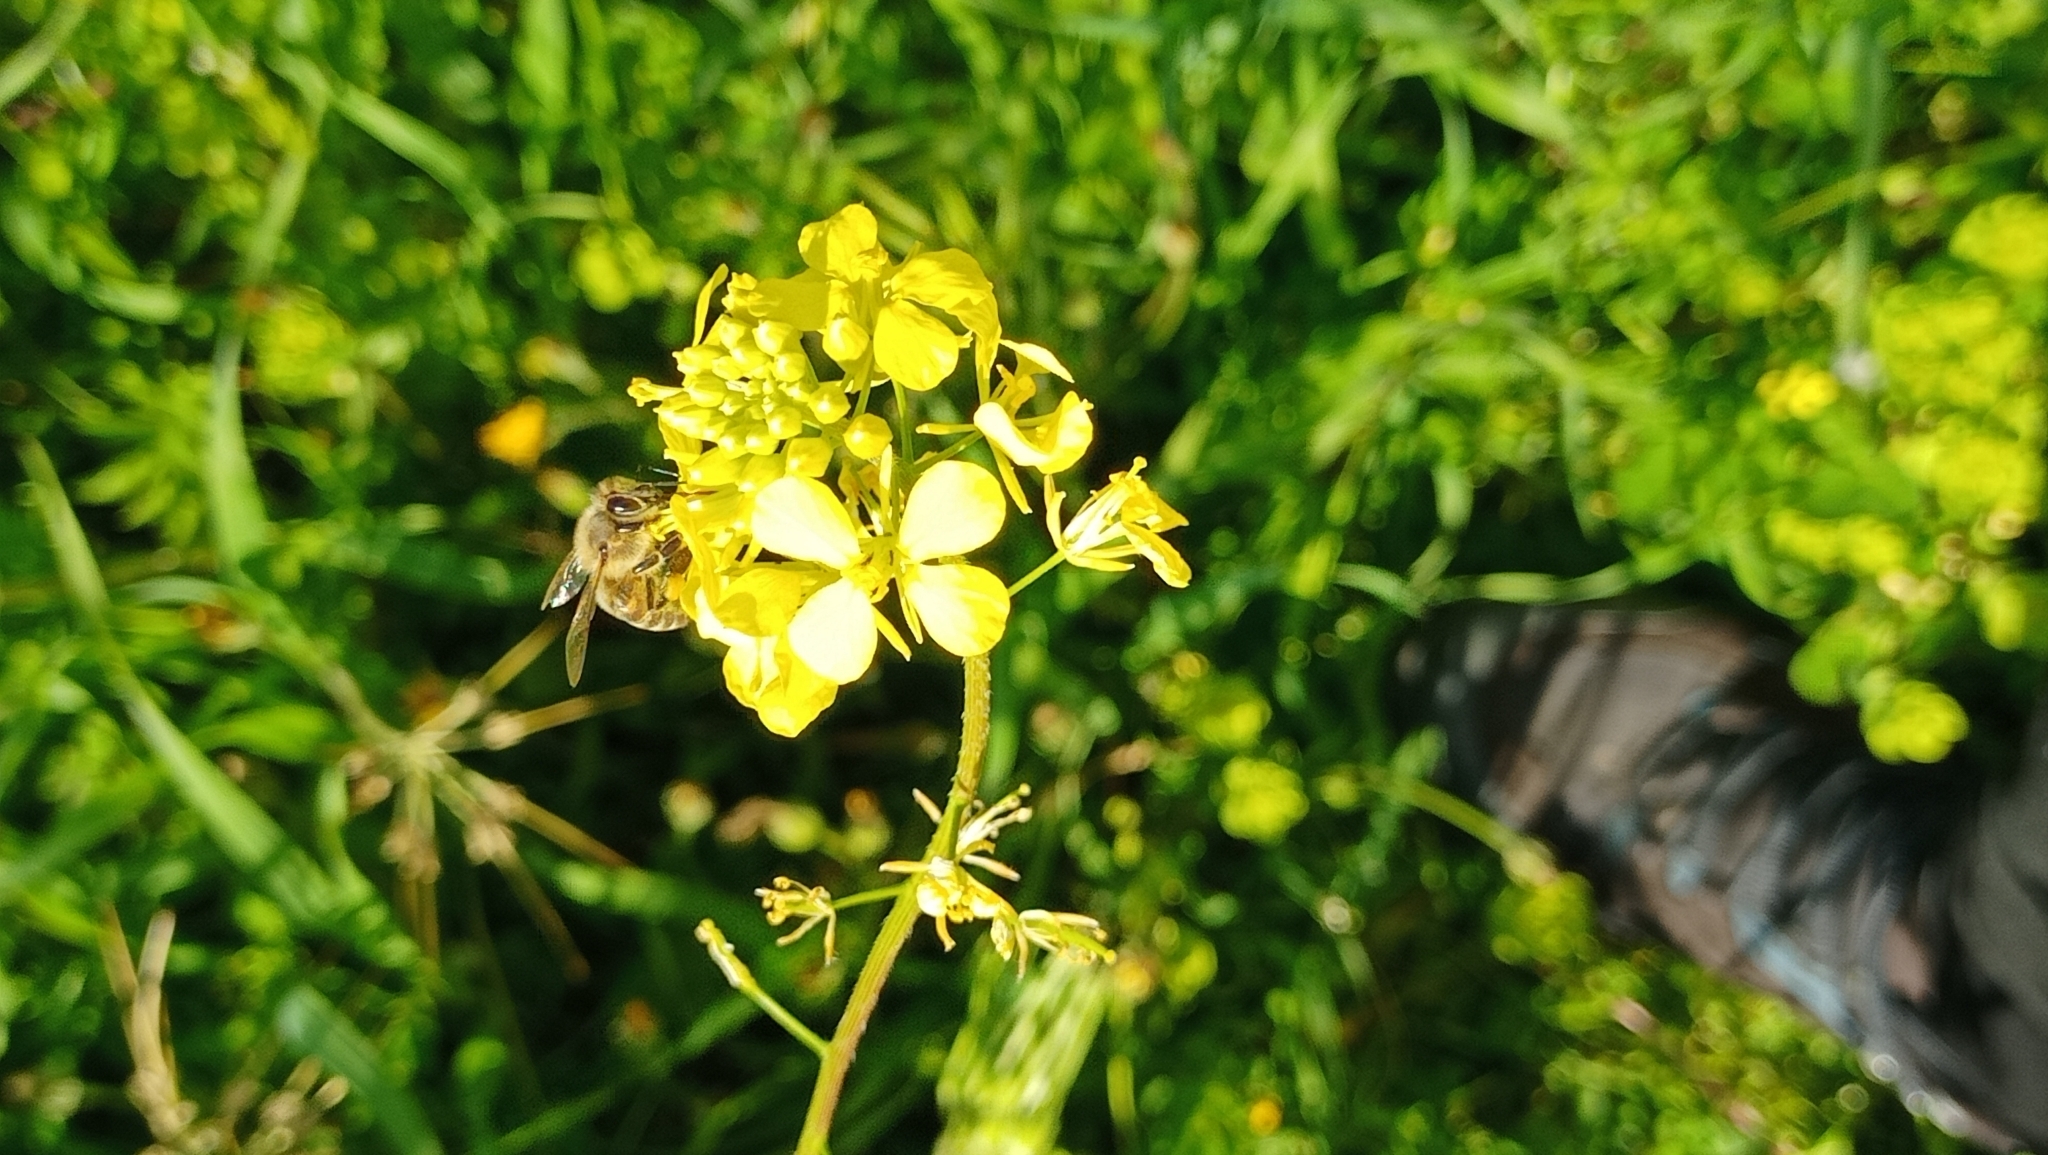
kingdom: Animalia
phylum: Arthropoda
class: Insecta
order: Hymenoptera
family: Apidae
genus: Apis
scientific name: Apis mellifera
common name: Honey bee
